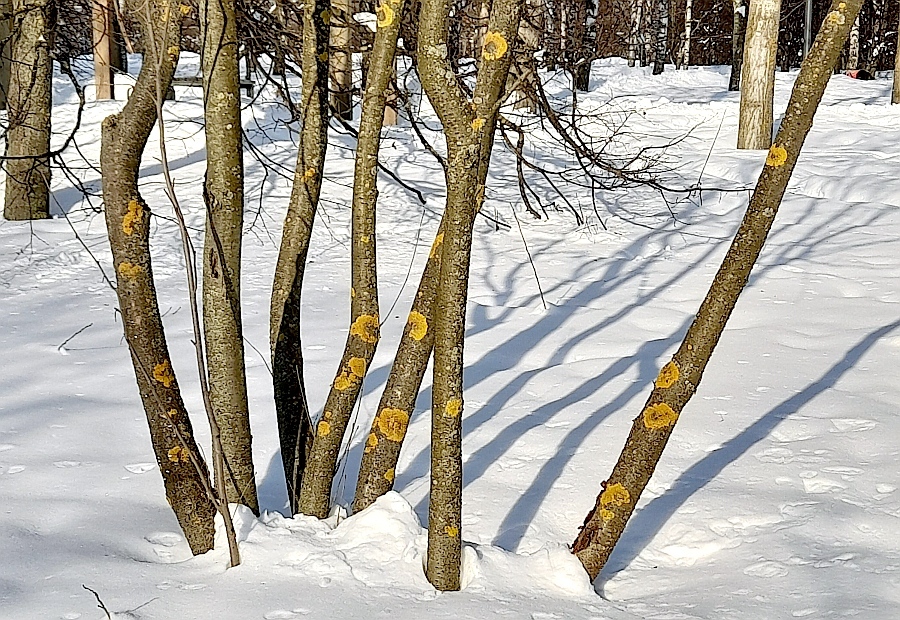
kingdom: Fungi
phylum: Ascomycota
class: Lecanoromycetes
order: Teloschistales
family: Teloschistaceae
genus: Xanthoria
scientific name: Xanthoria parietina
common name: Common orange lichen
